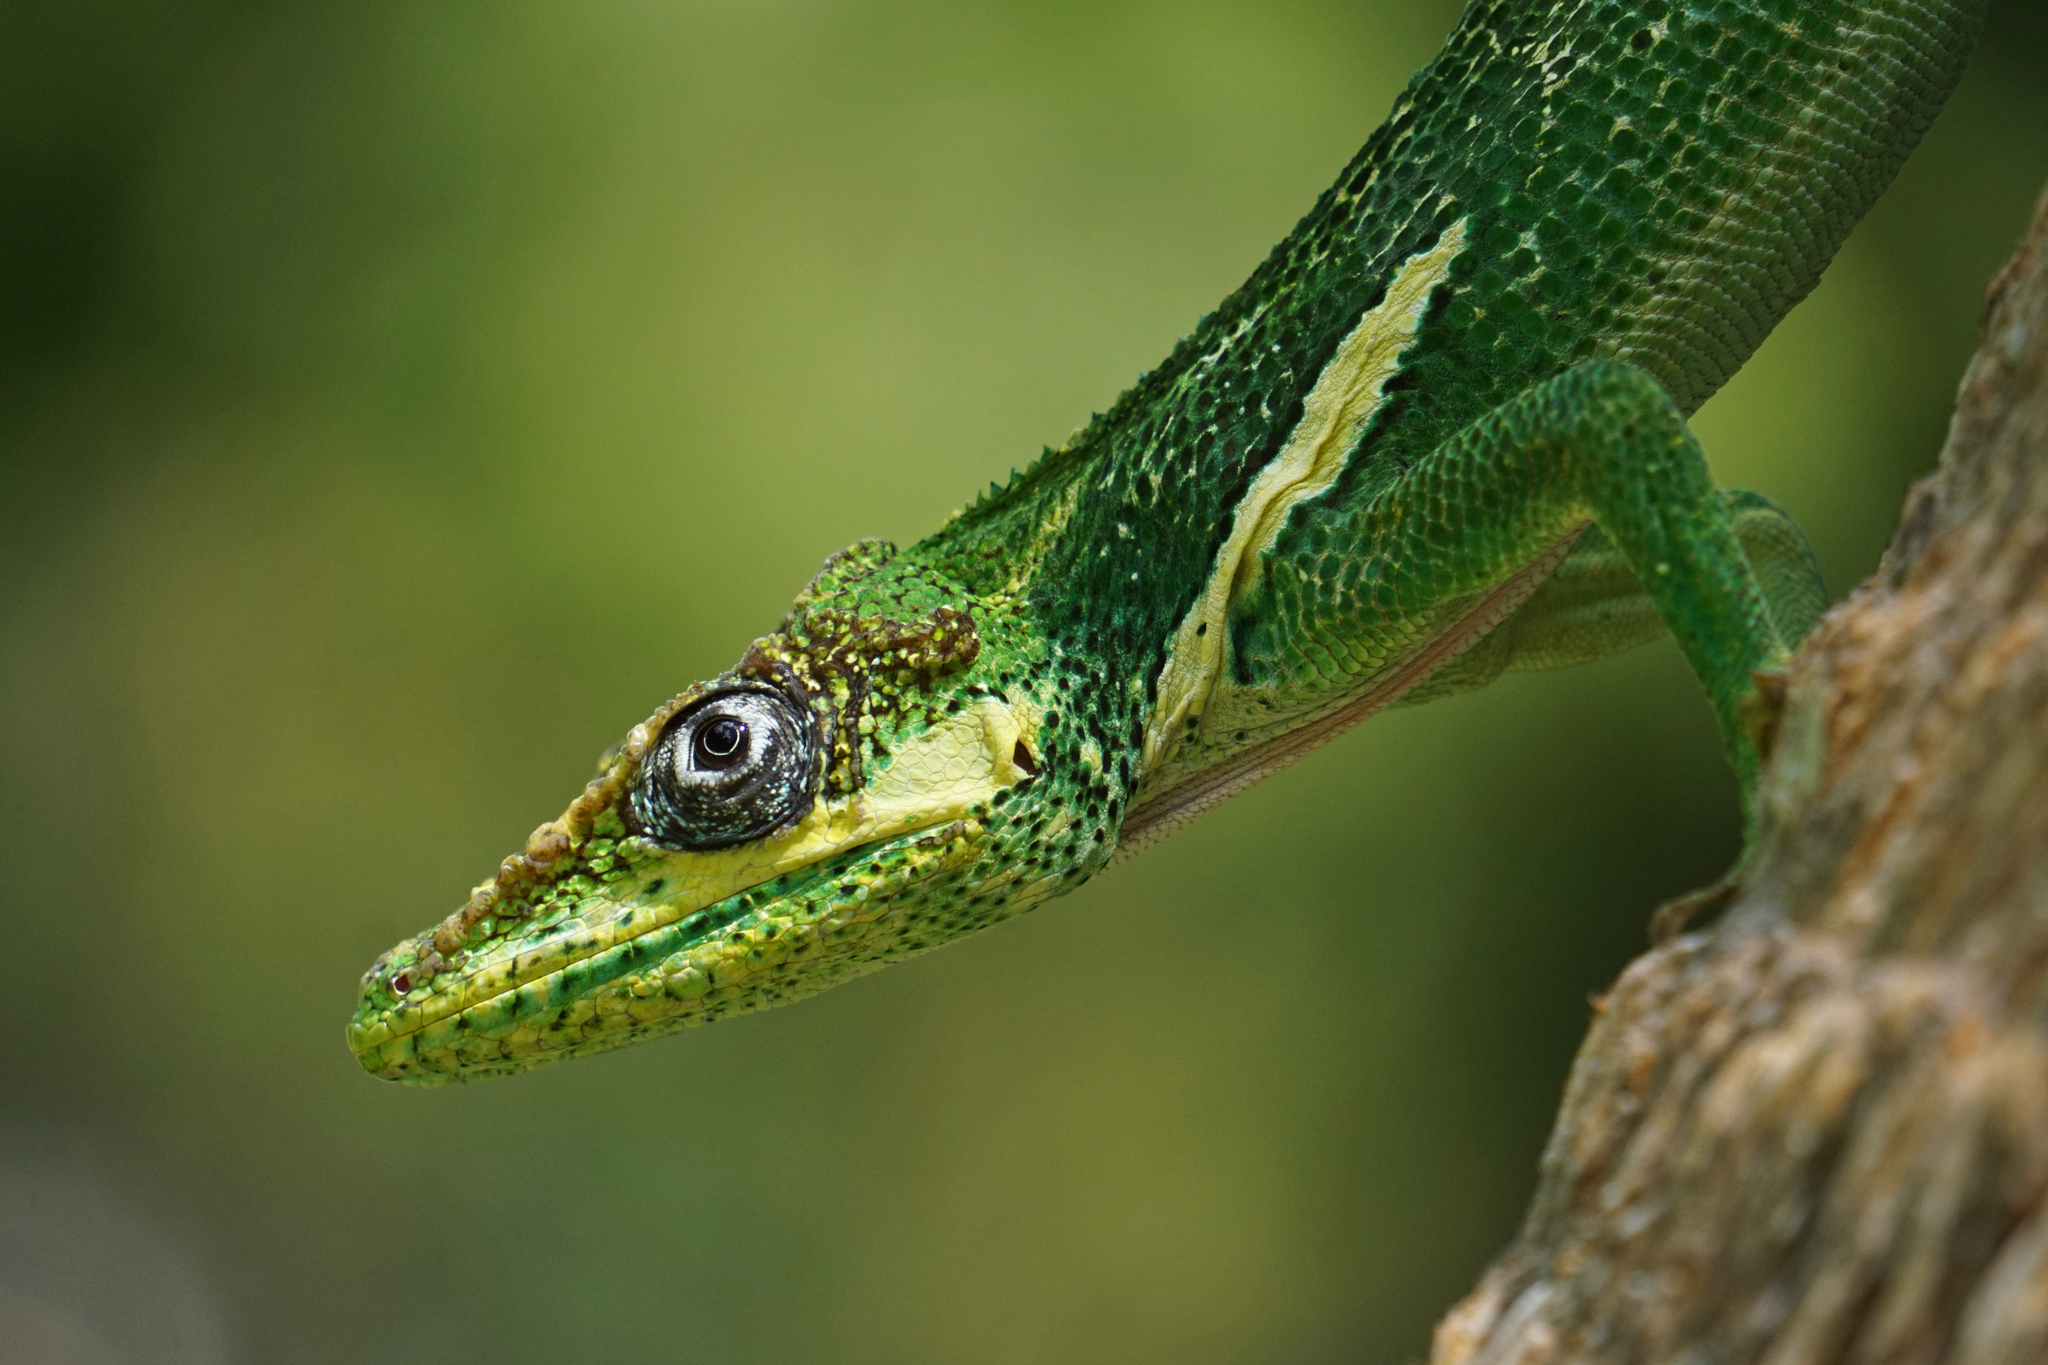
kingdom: Animalia
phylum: Chordata
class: Squamata
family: Dactyloidae
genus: Anolis
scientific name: Anolis equestris
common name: Knight anole
